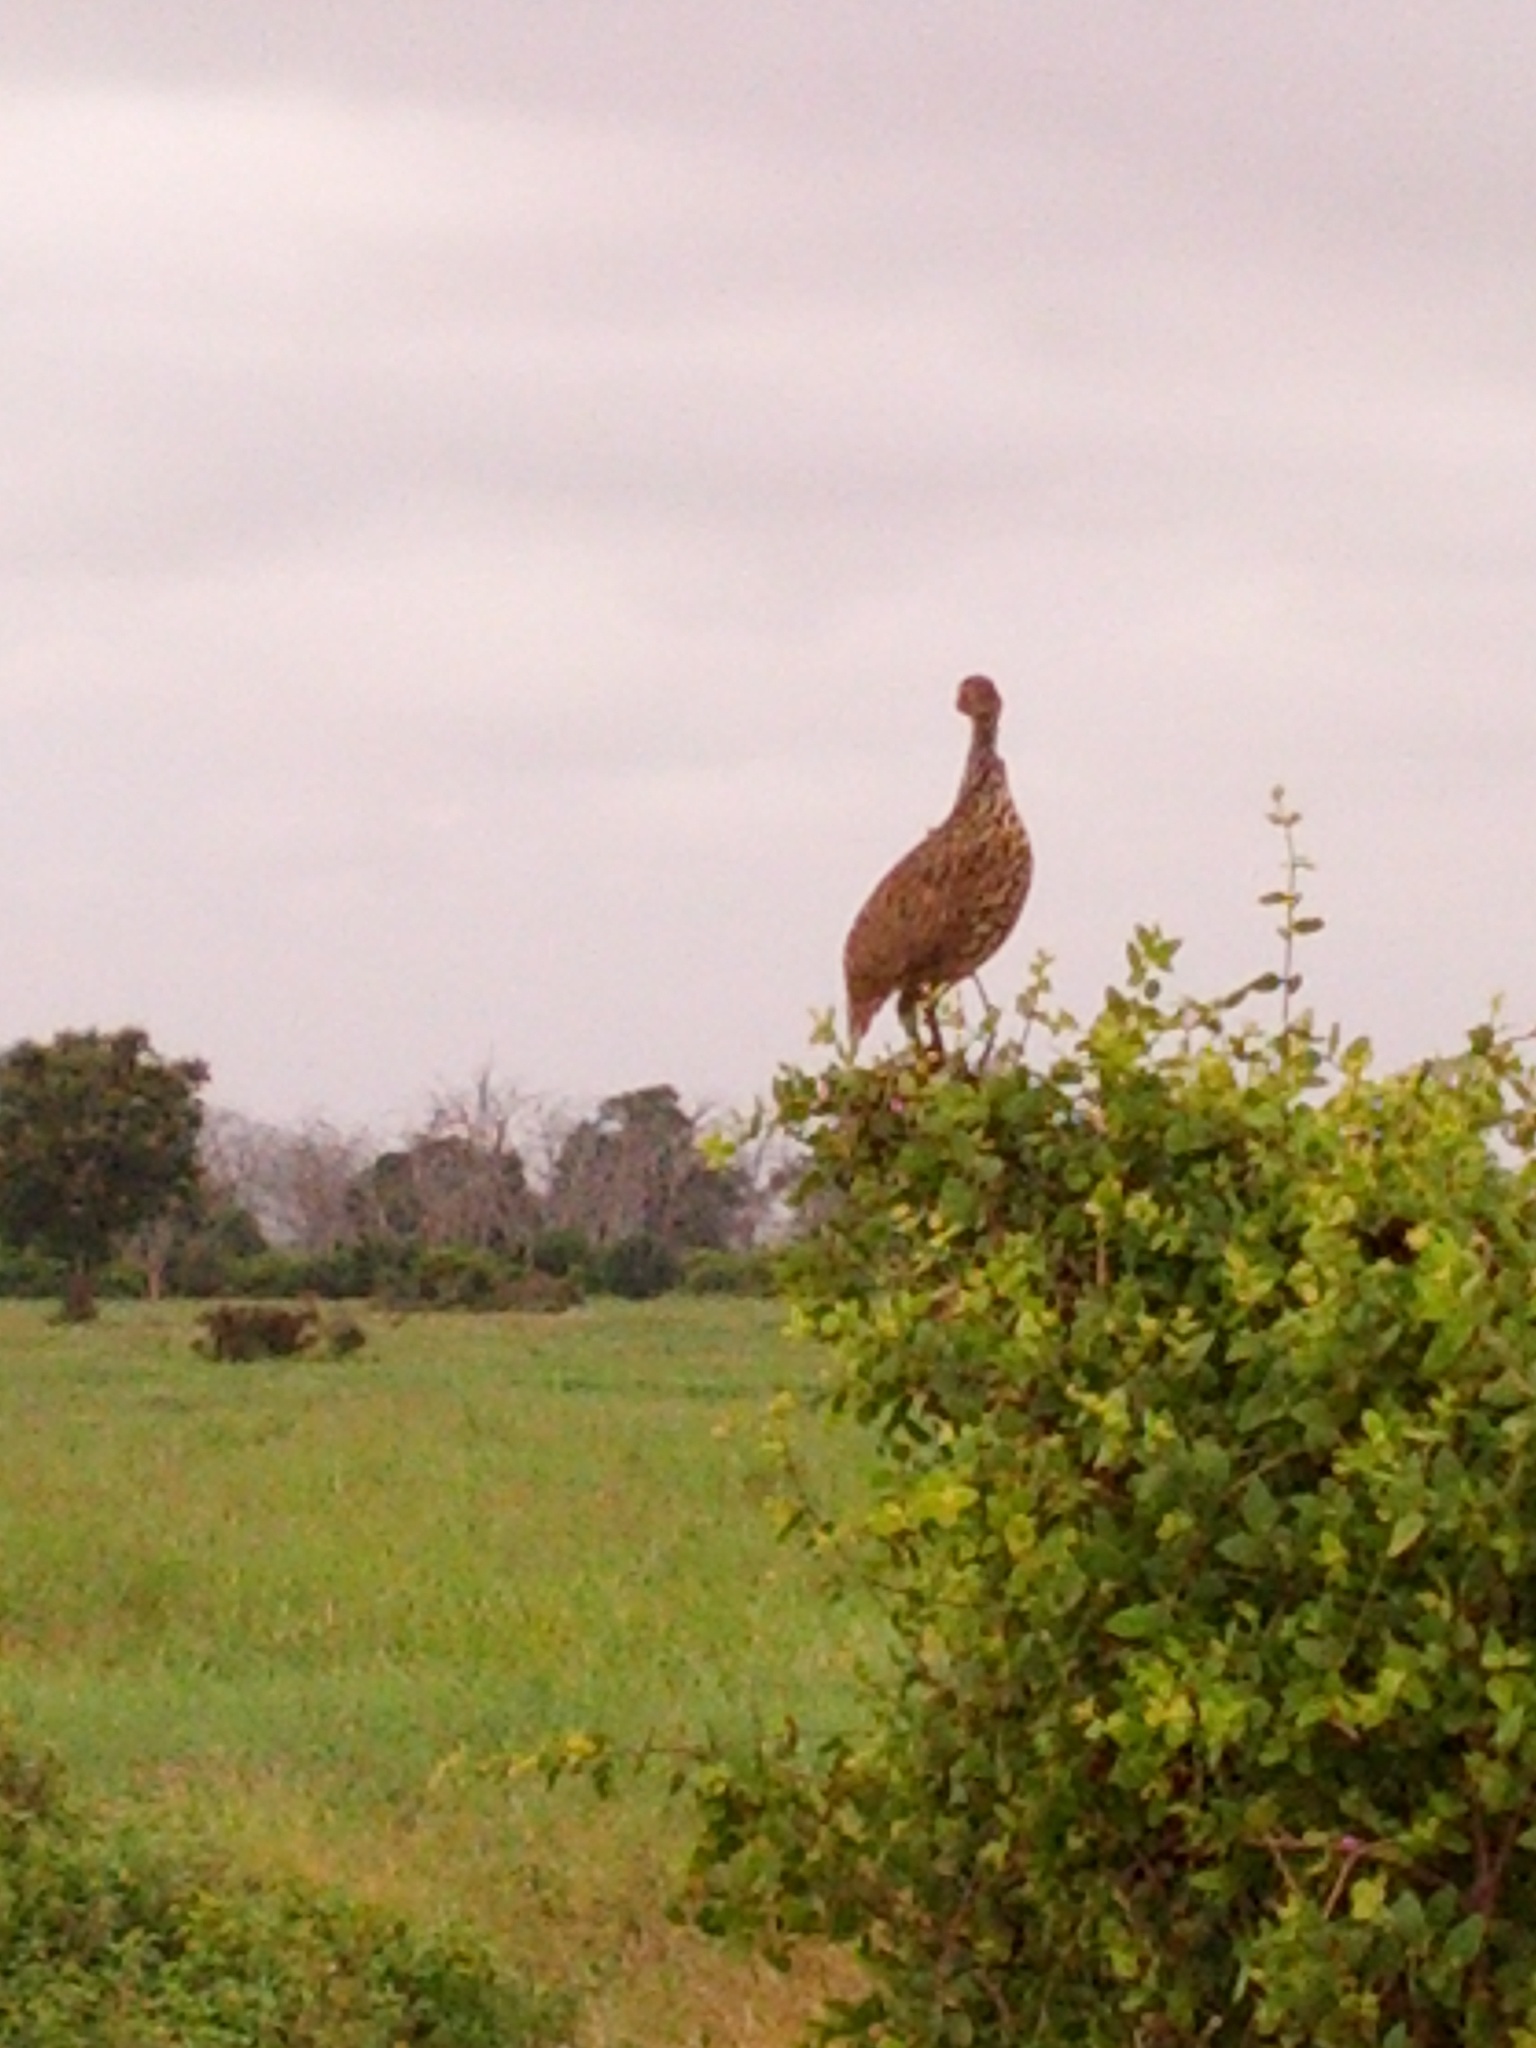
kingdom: Animalia
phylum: Chordata
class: Aves
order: Galliformes
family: Phasianidae
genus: Pternistis
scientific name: Pternistis leucoscepus
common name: Yellow-necked spurfowl
